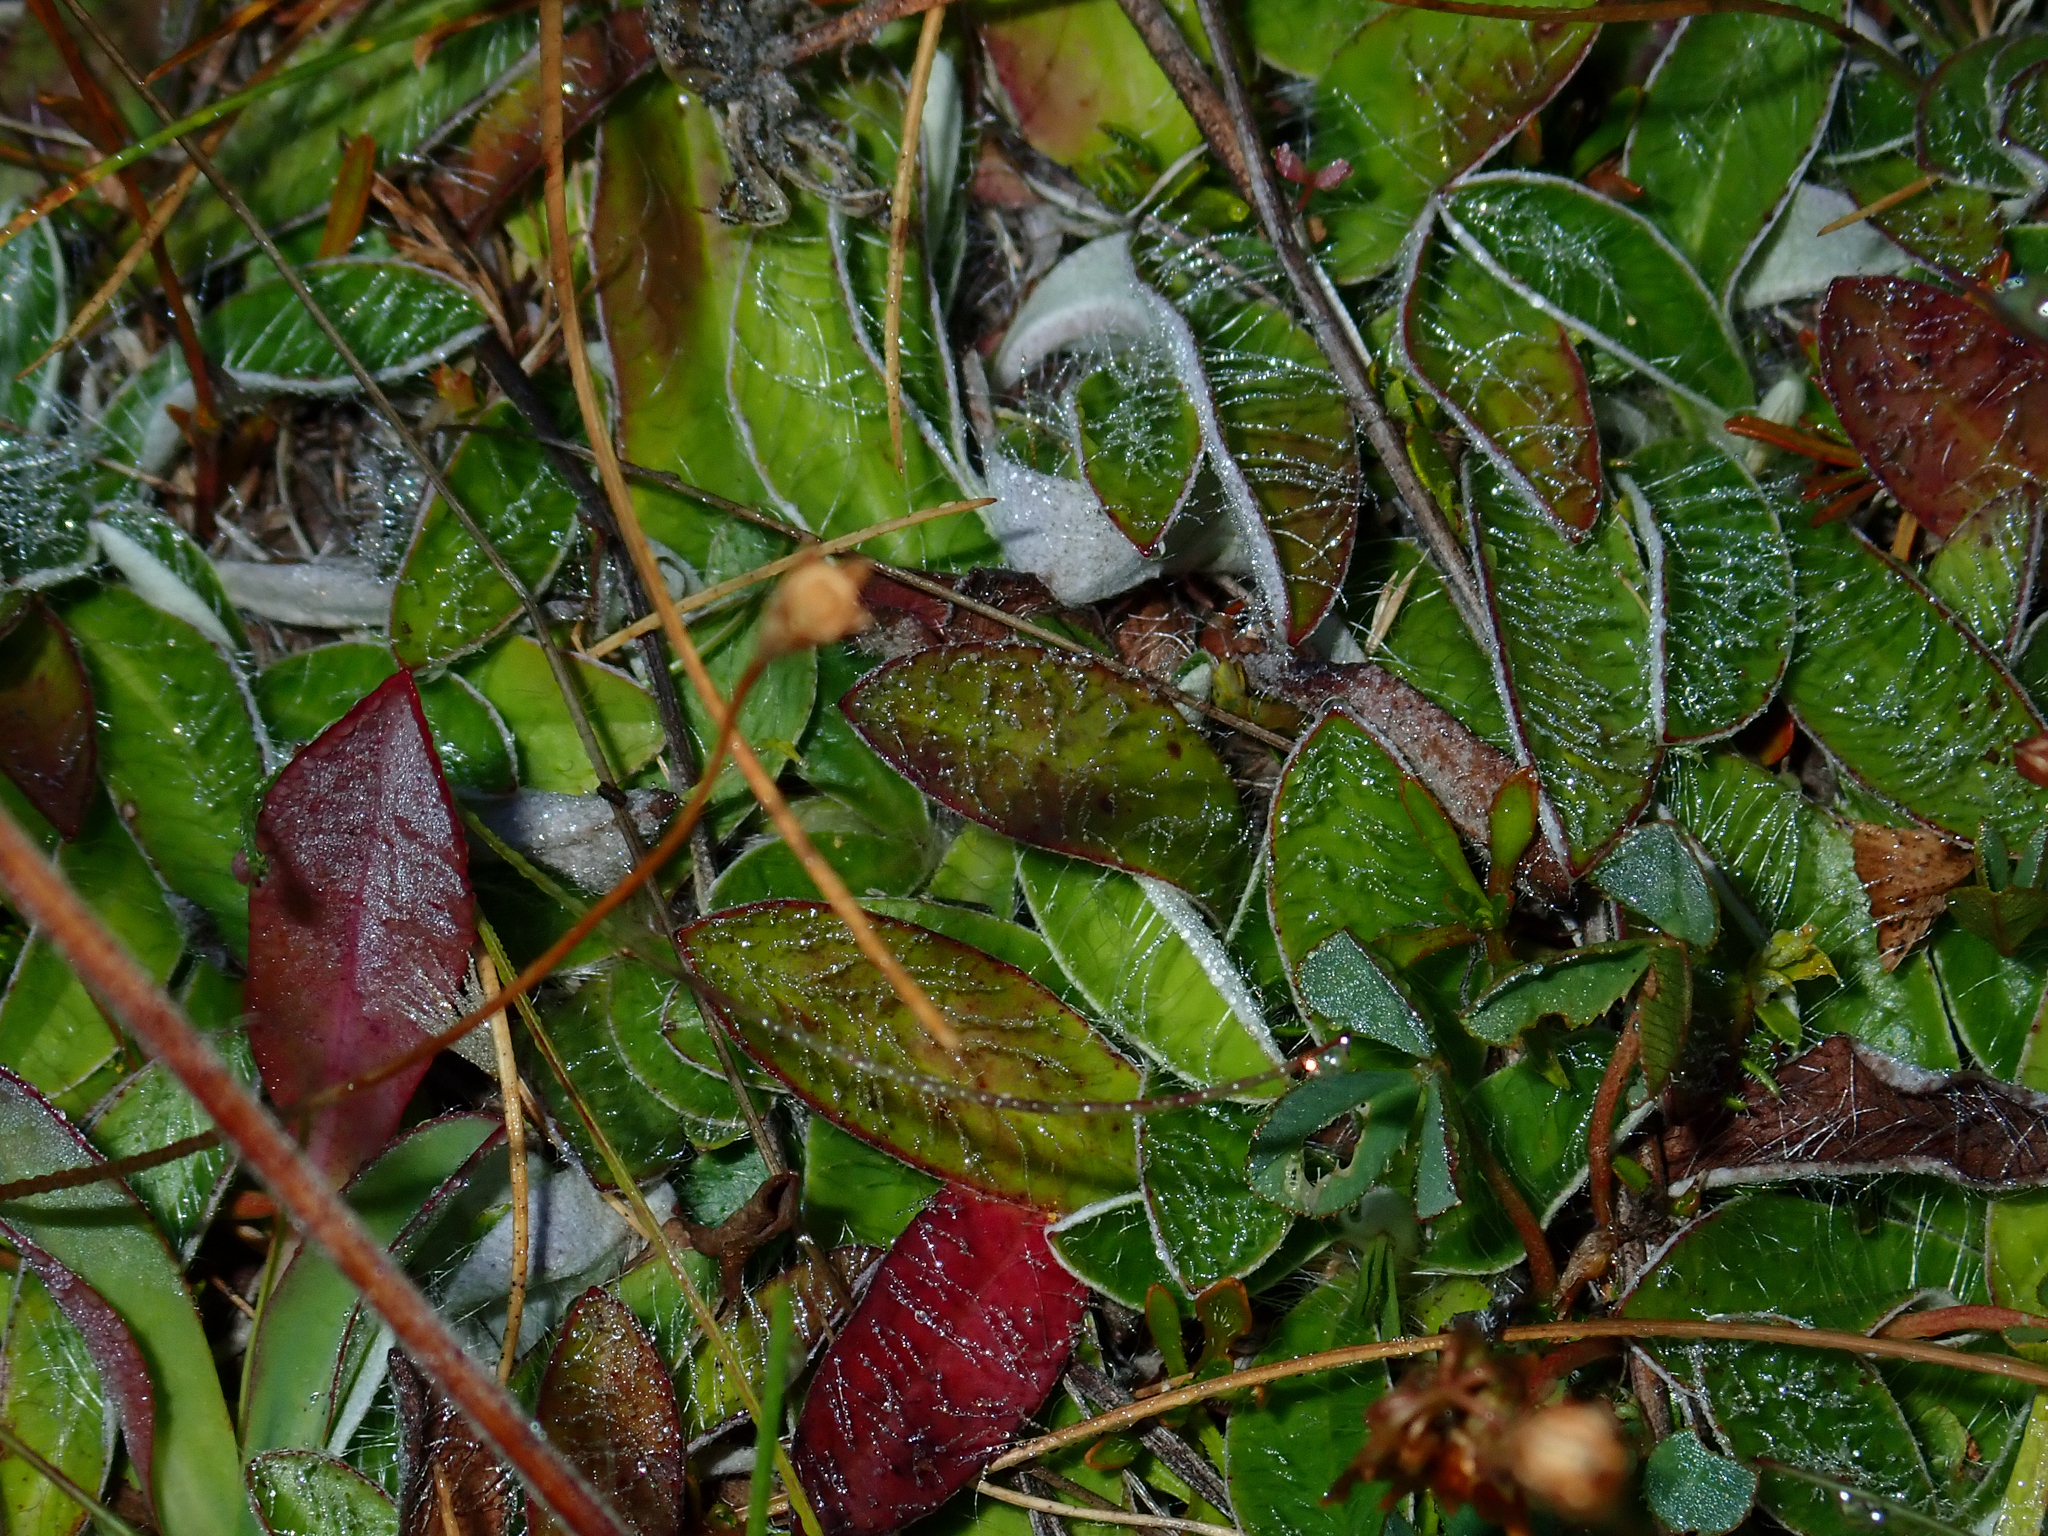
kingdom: Plantae
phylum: Tracheophyta
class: Magnoliopsida
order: Asterales
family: Asteraceae
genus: Pilosella
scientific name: Pilosella officinarum
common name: Mouse-ear hawkweed
